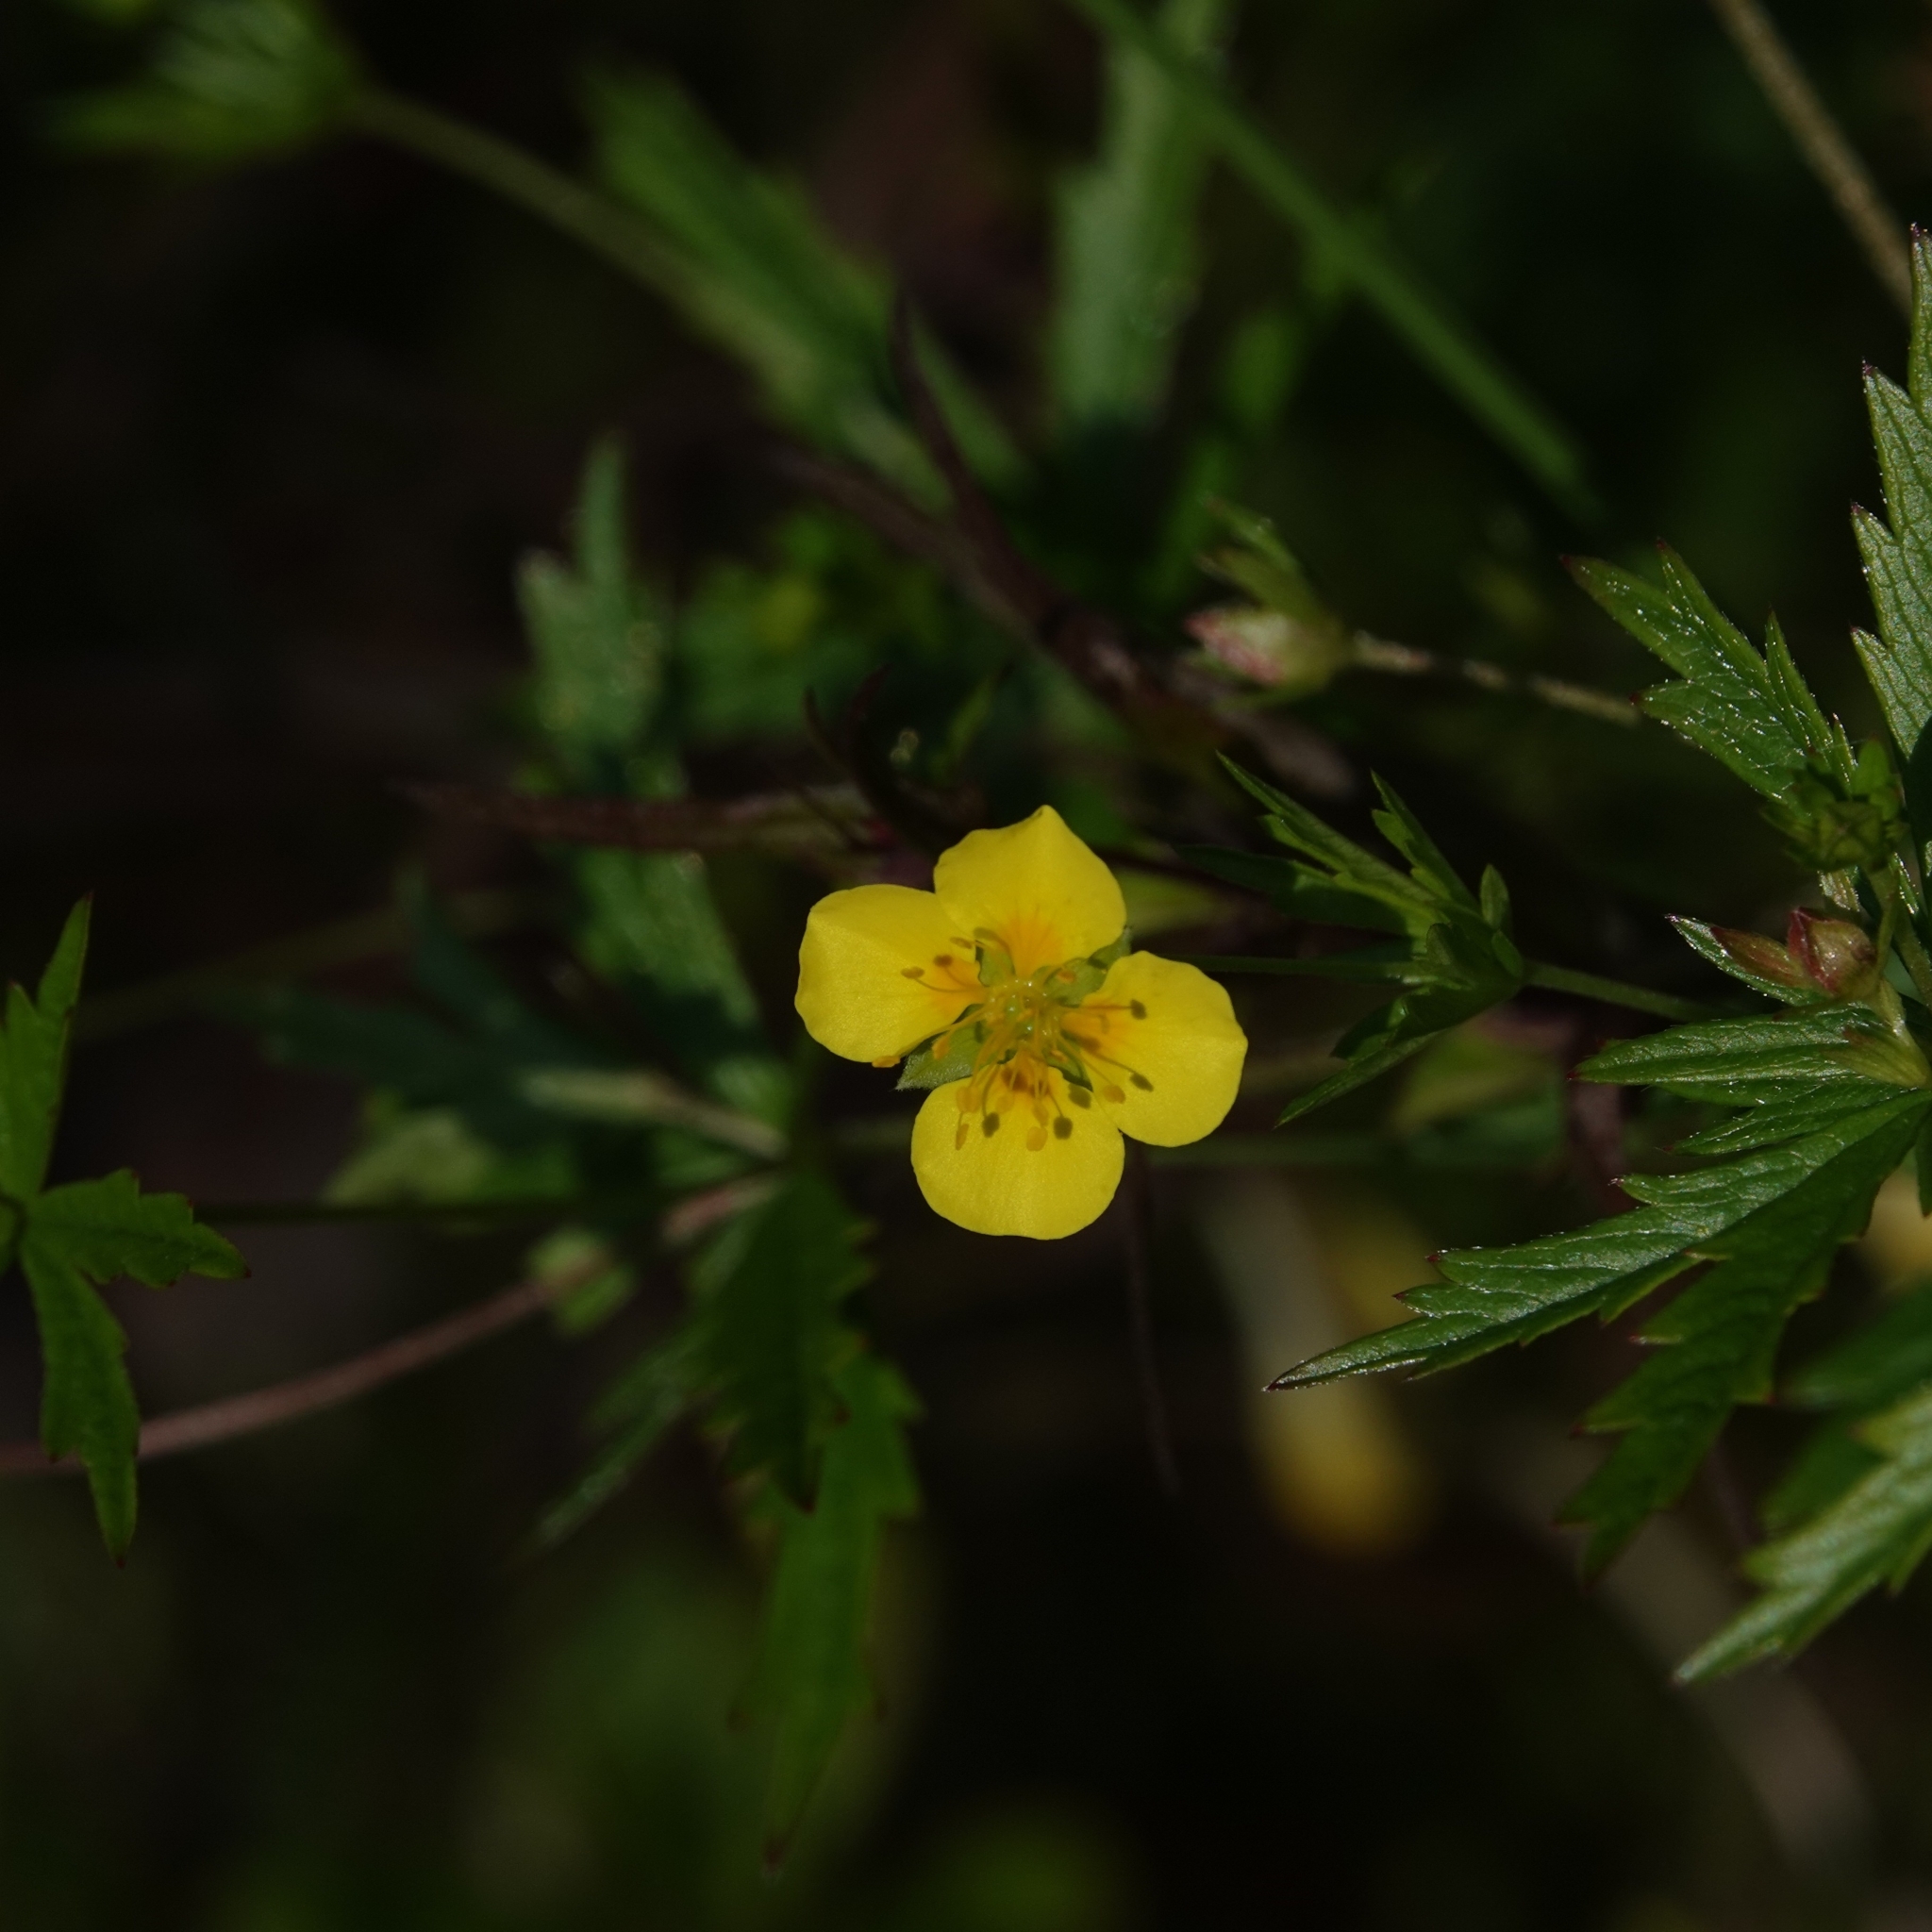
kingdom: Plantae
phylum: Tracheophyta
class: Magnoliopsida
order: Rosales
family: Rosaceae
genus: Potentilla
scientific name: Potentilla erecta
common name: Tormentil
